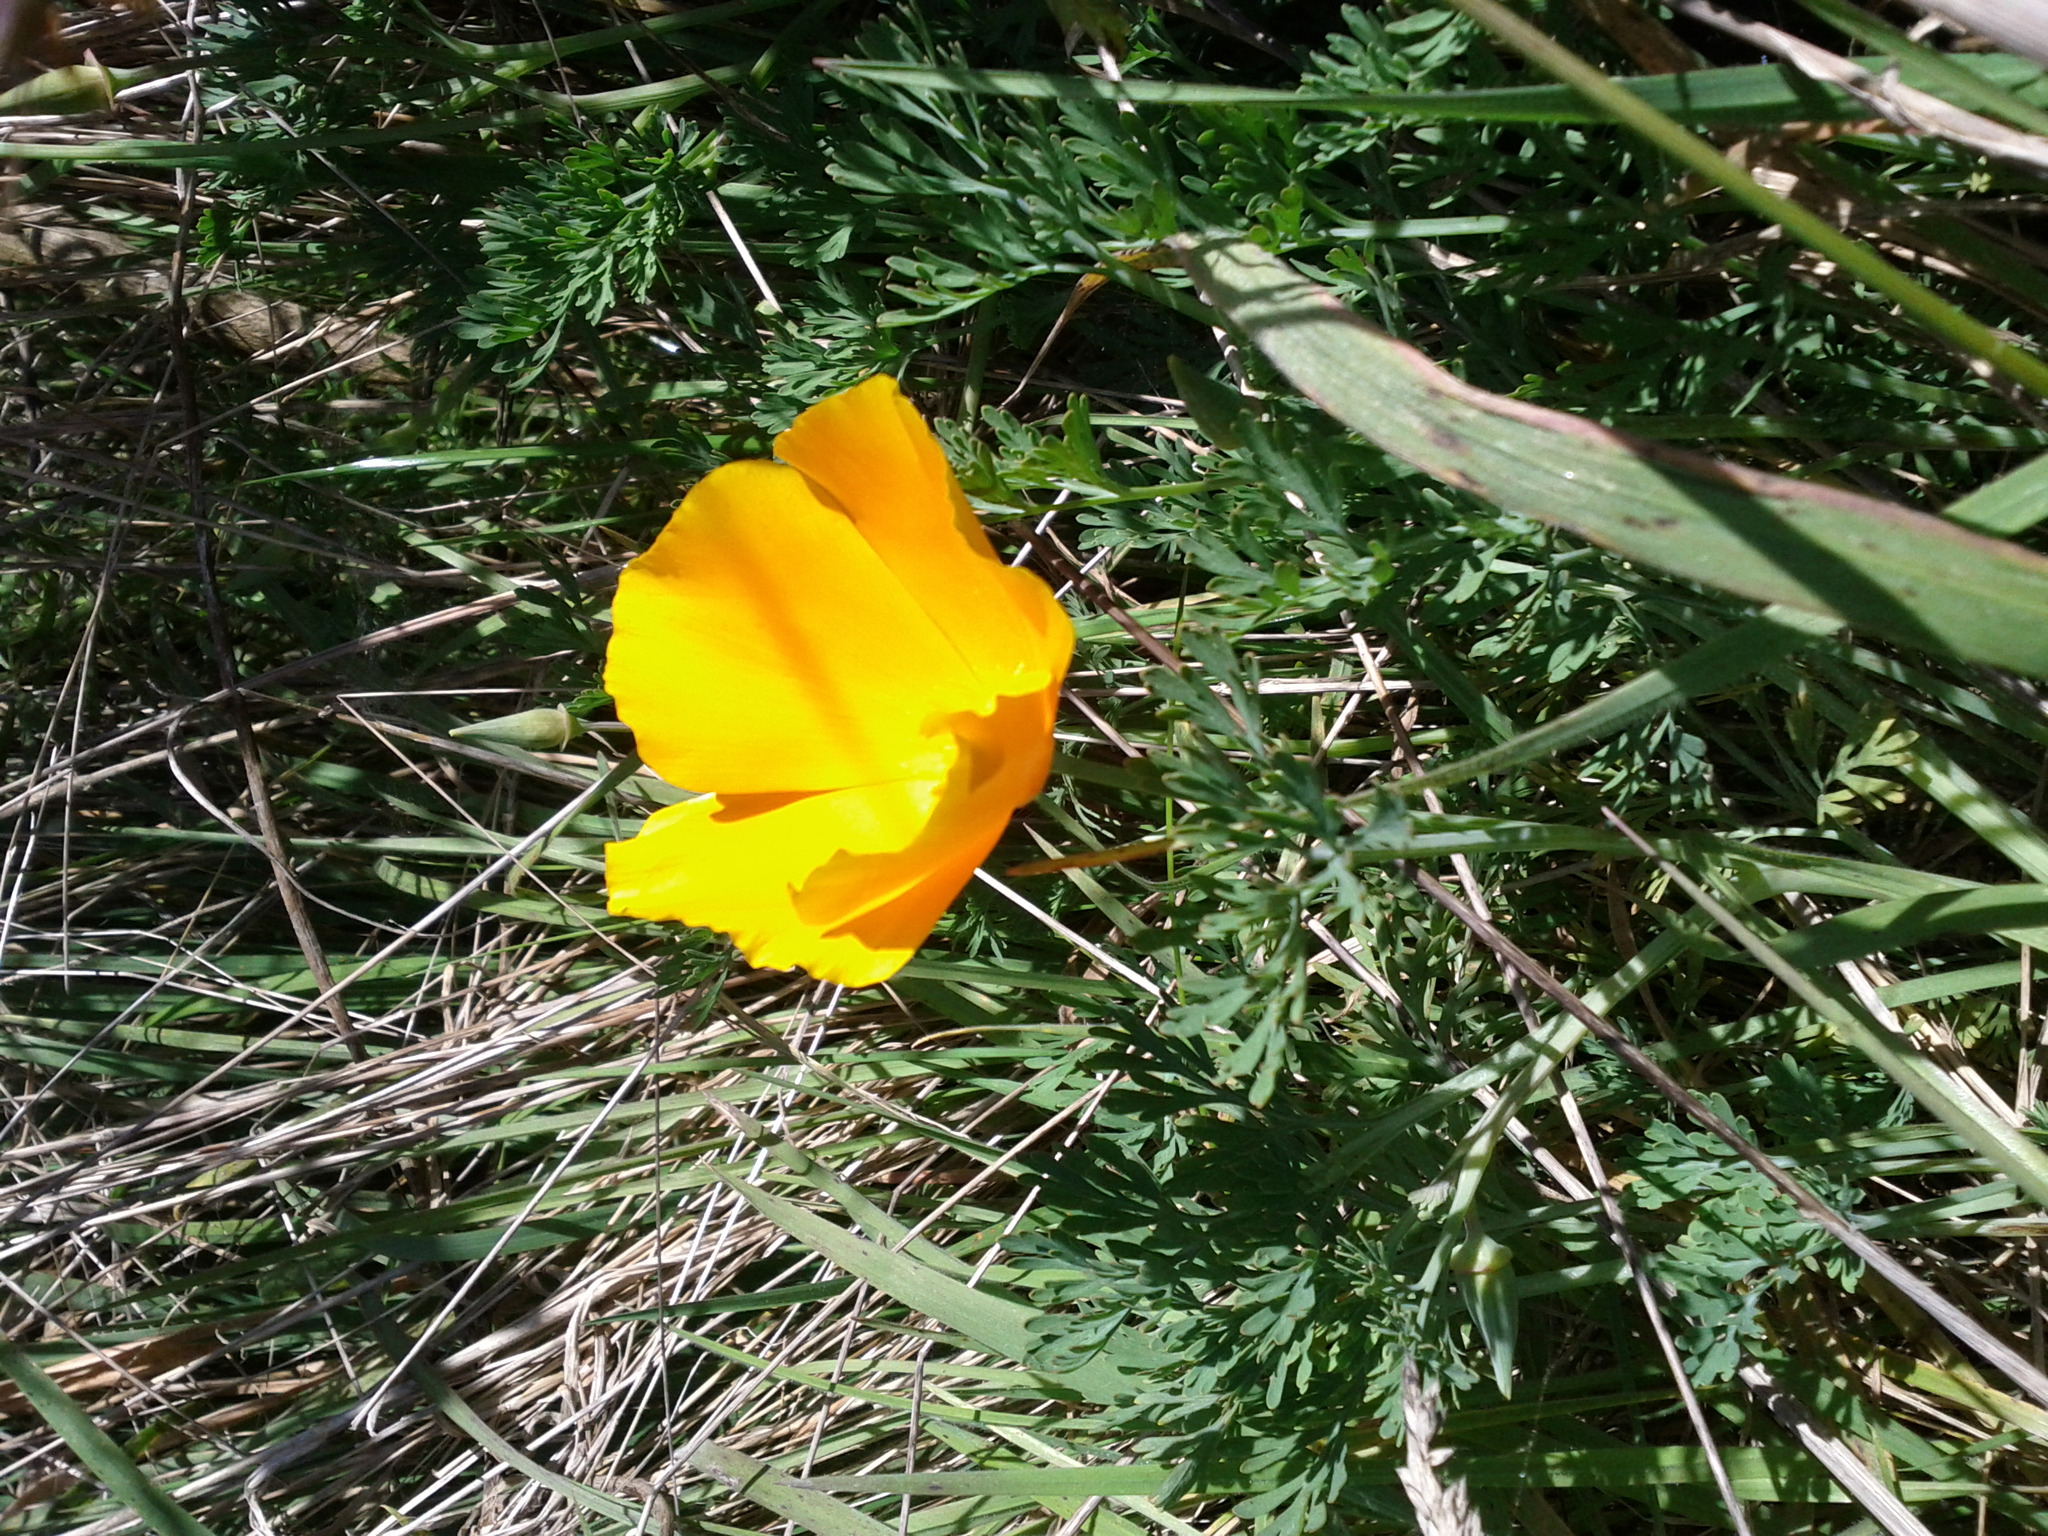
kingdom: Plantae
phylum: Tracheophyta
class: Magnoliopsida
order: Ranunculales
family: Papaveraceae
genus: Eschscholzia
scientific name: Eschscholzia californica
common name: California poppy
